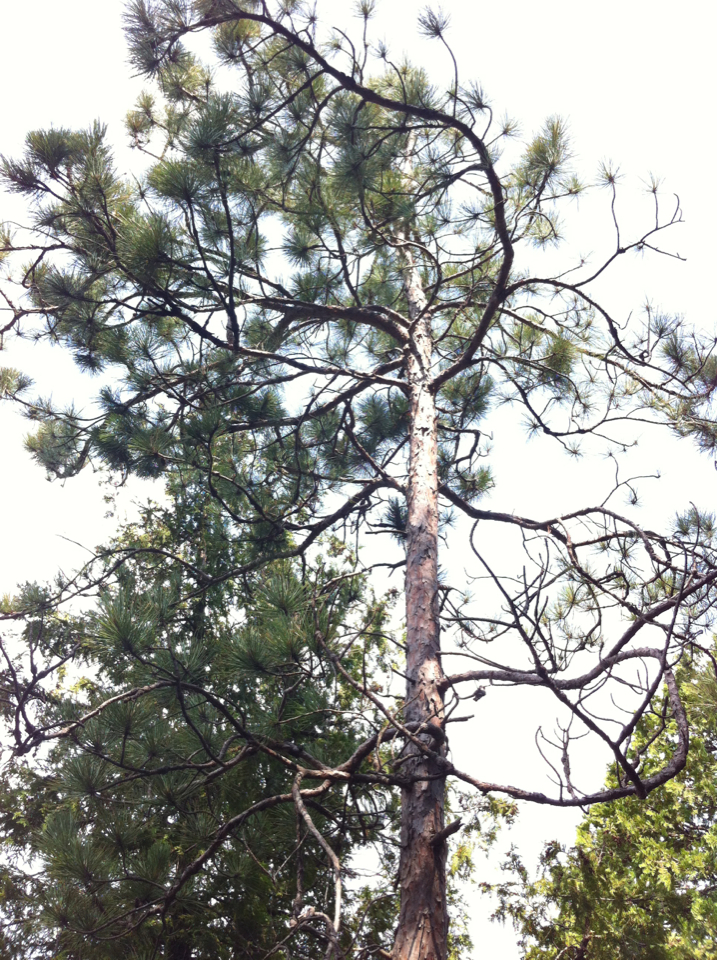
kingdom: Plantae
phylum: Tracheophyta
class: Pinopsida
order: Pinales
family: Pinaceae
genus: Pinus
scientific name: Pinus resinosa
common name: Norway pine
